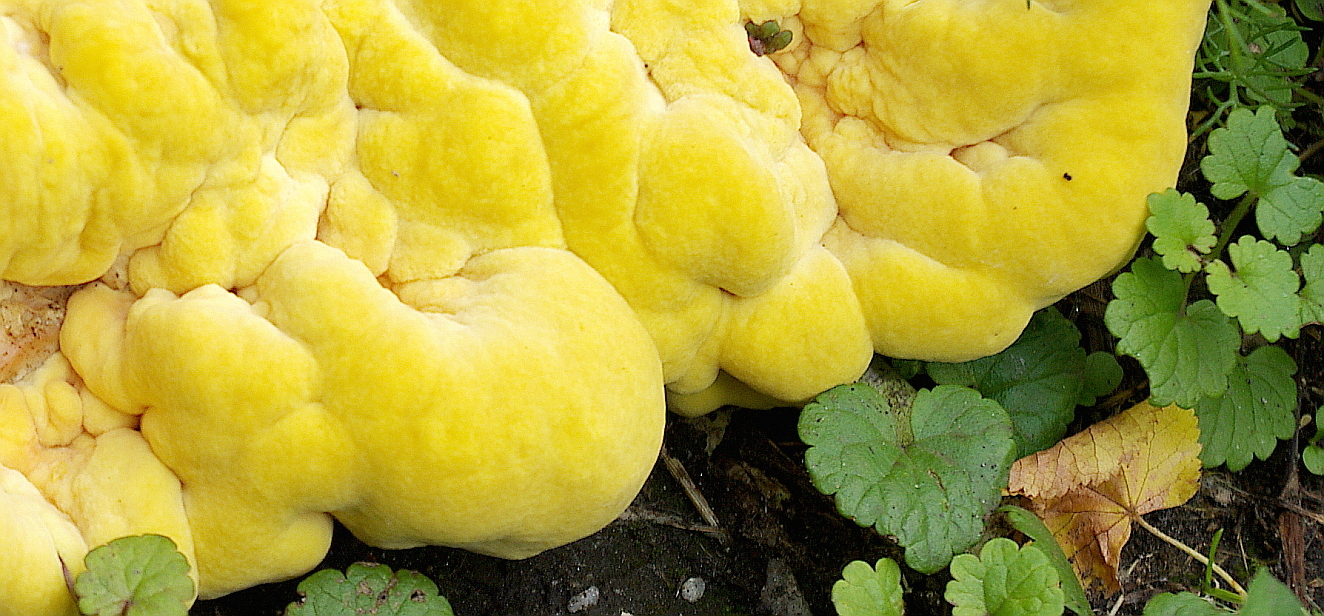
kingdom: Fungi
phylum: Basidiomycota
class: Agaricomycetes
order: Polyporales
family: Laetiporaceae
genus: Laetiporus
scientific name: Laetiporus sulphureus
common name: Chicken of the woods
